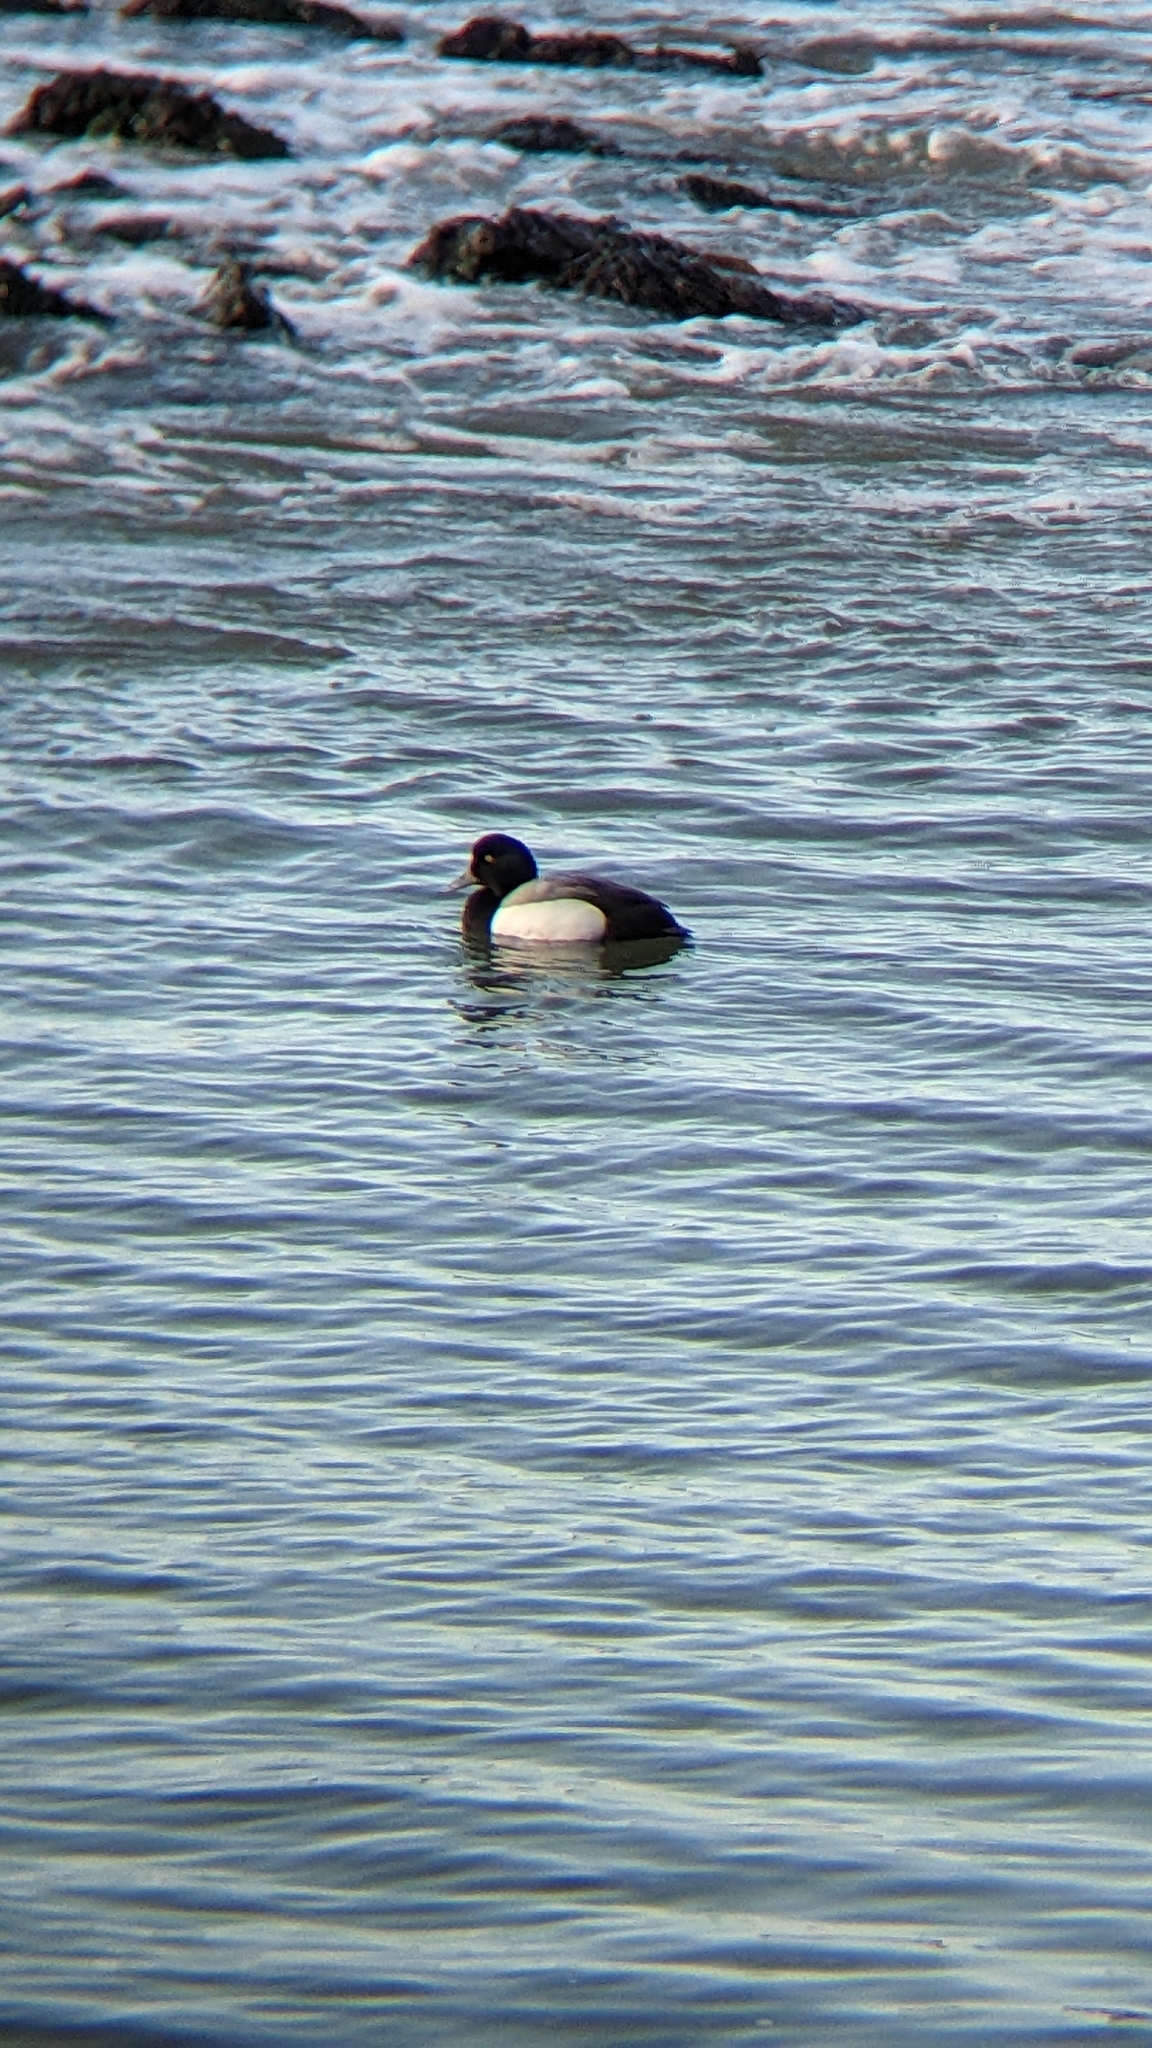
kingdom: Animalia
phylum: Chordata
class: Aves
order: Anseriformes
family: Anatidae
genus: Aythya
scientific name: Aythya marila
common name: Greater scaup
